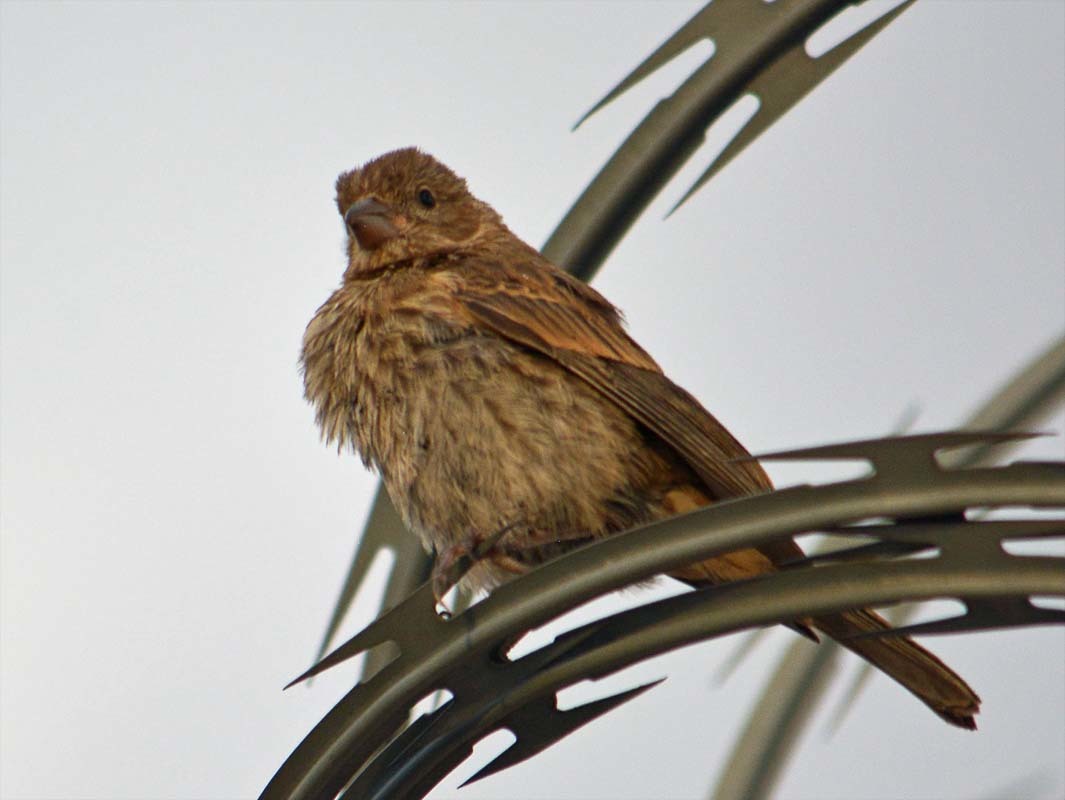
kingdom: Animalia
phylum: Chordata
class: Aves
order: Passeriformes
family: Fringillidae
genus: Haemorhous
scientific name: Haemorhous mexicanus
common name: House finch
